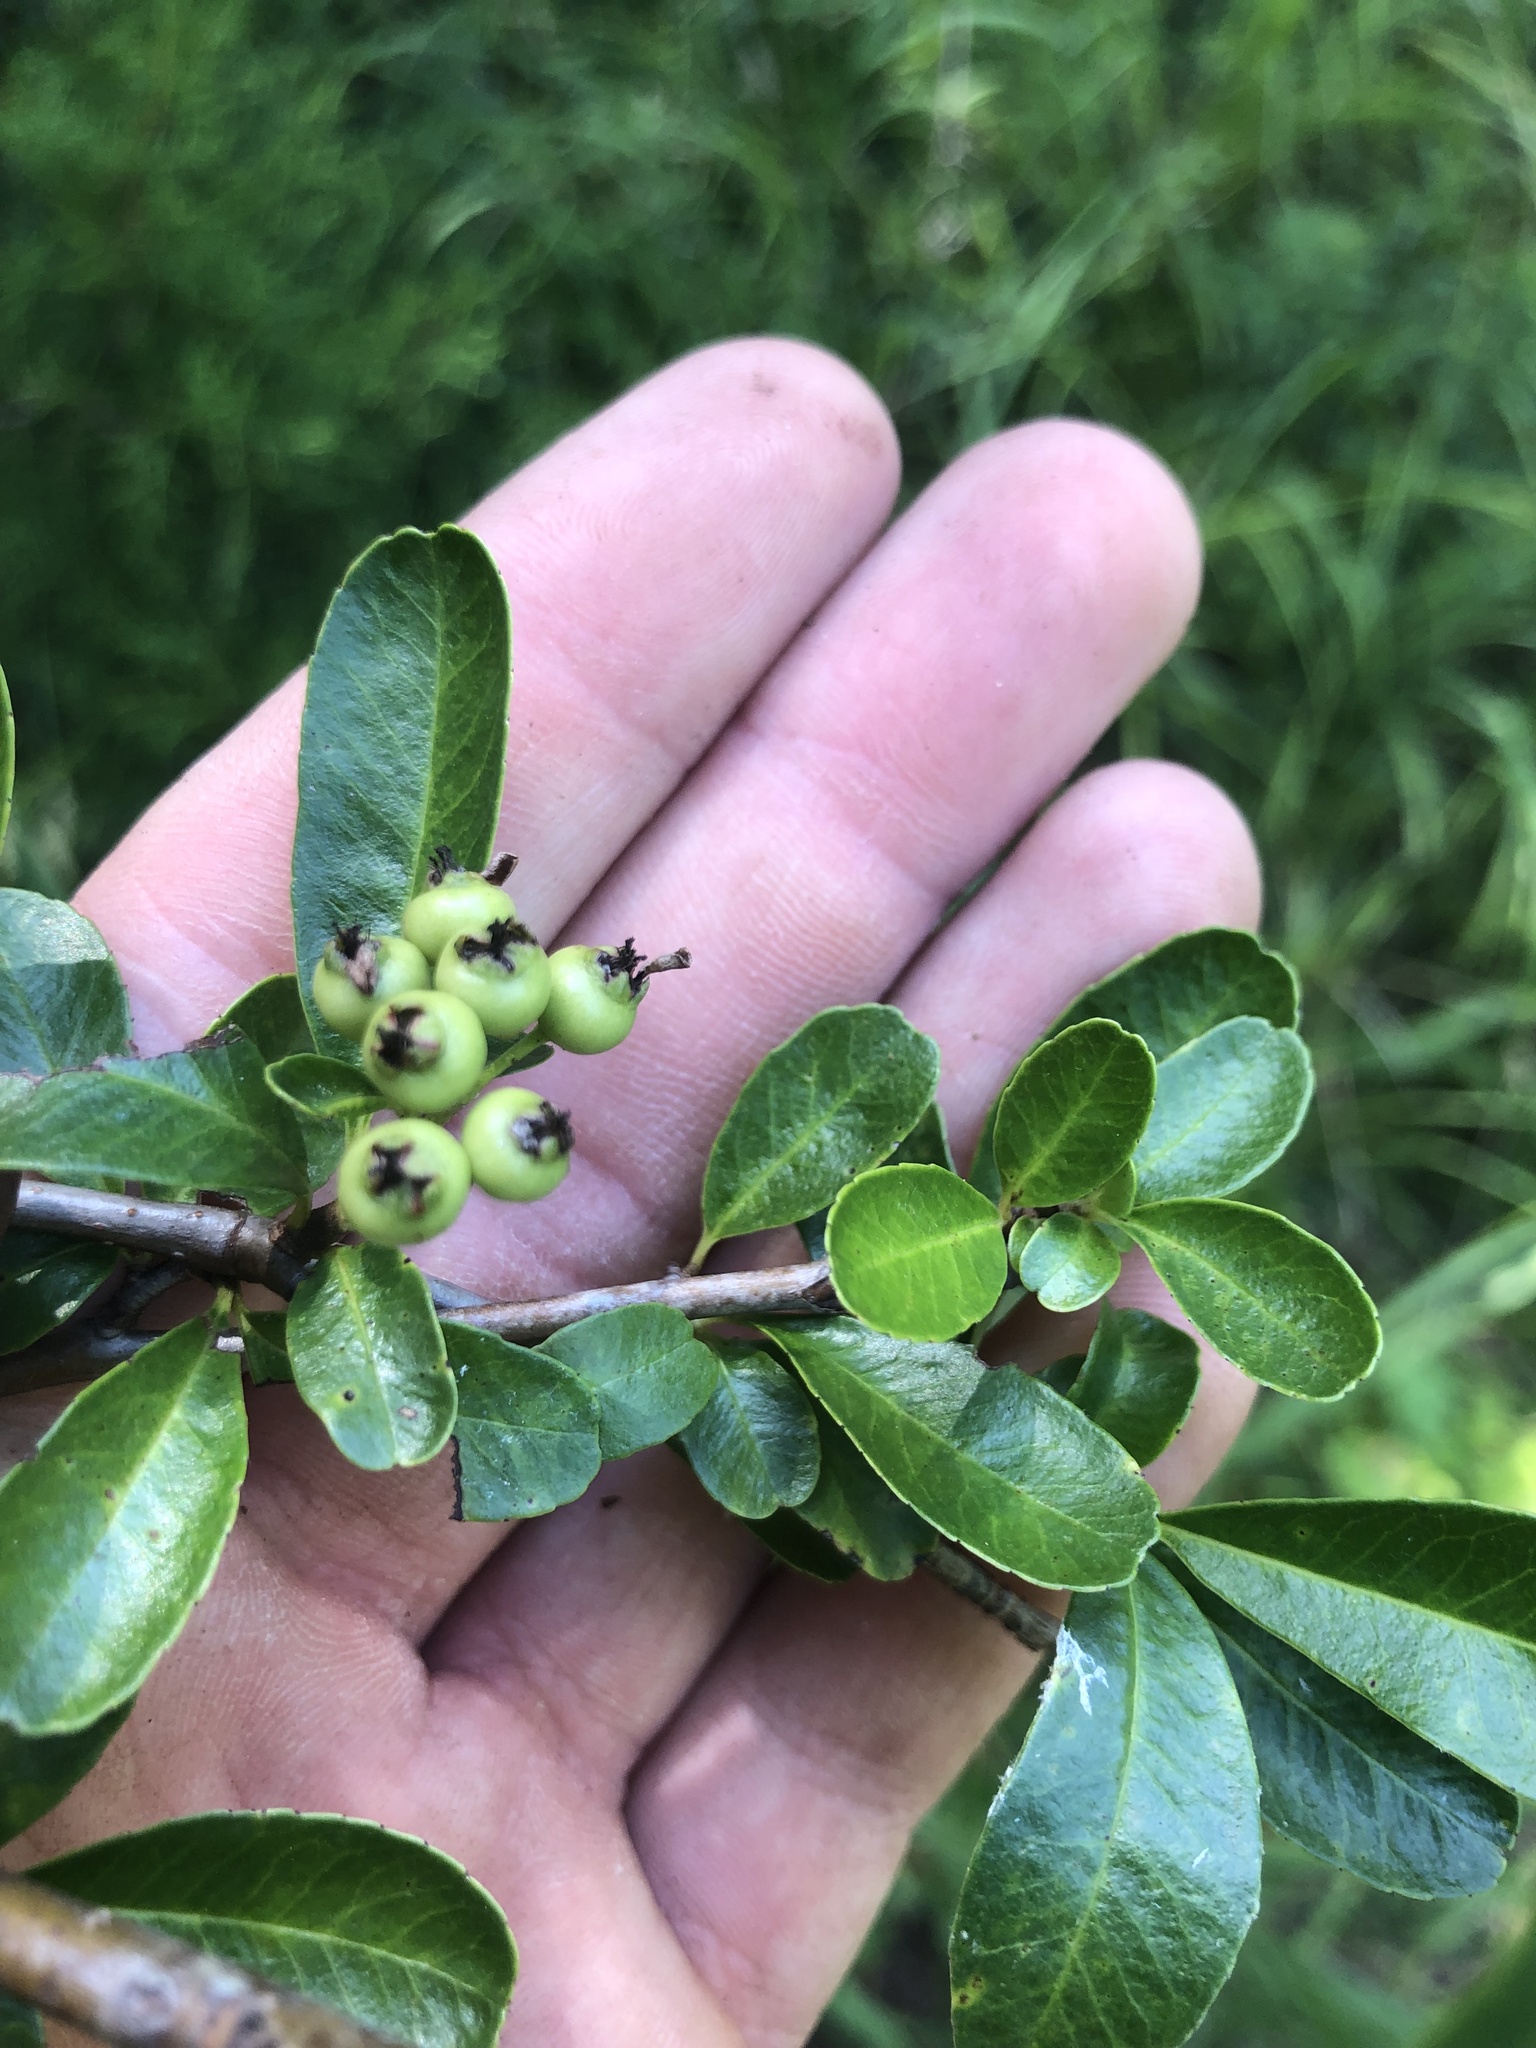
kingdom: Plantae
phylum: Tracheophyta
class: Magnoliopsida
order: Rosales
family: Rosaceae
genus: Pyracantha
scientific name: Pyracantha fortuneana
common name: Chinese firethorn
